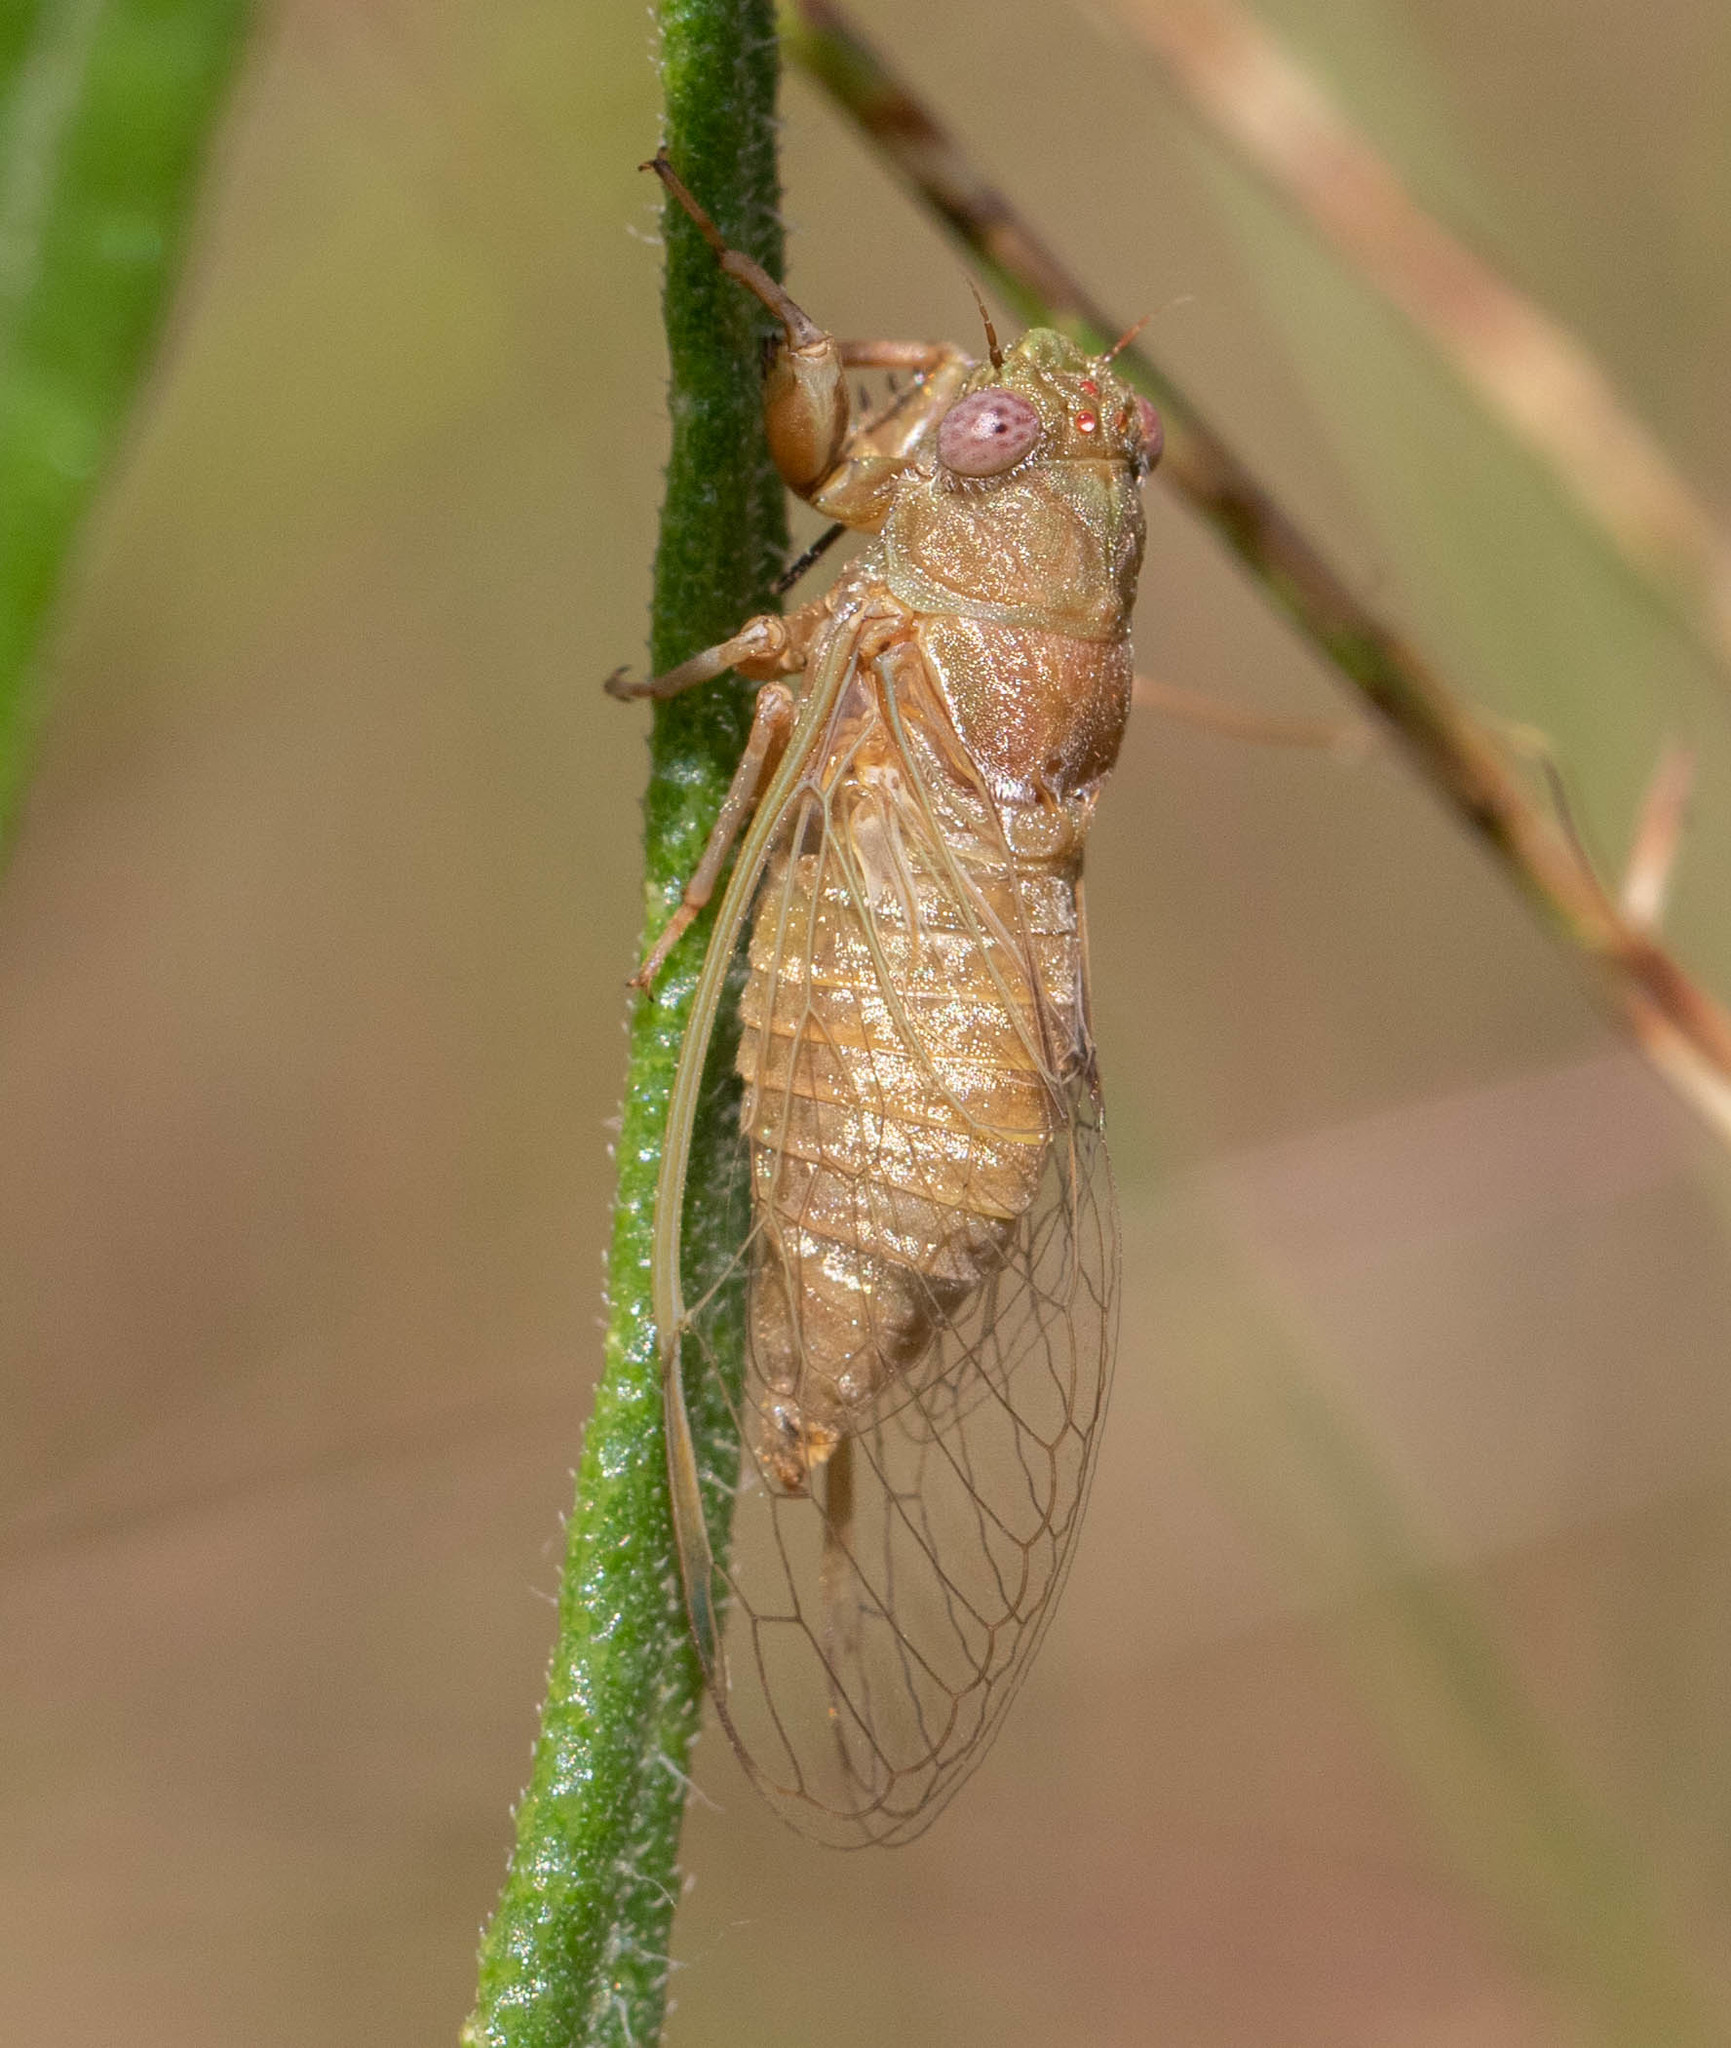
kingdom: Animalia
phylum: Arthropoda
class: Insecta
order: Hemiptera
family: Cicadidae
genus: Cicadettana
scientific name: Cicadettana calliope
